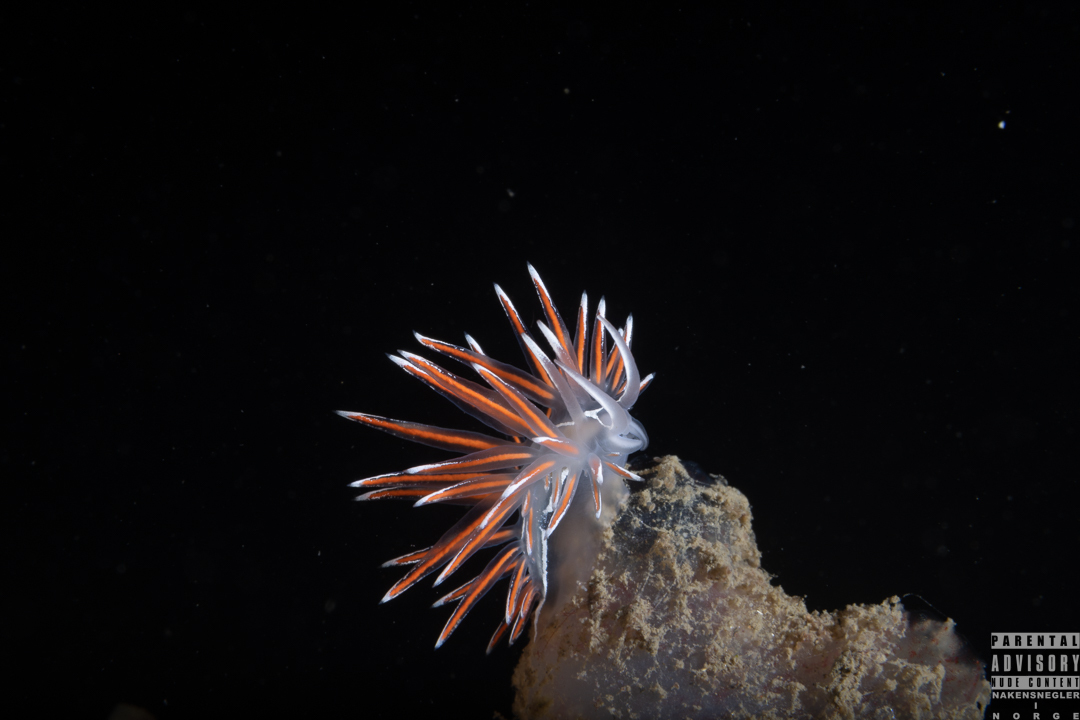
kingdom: Animalia
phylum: Mollusca
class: Gastropoda
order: Nudibranchia
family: Coryphellidae
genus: Coryphella
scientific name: Coryphella lineata
